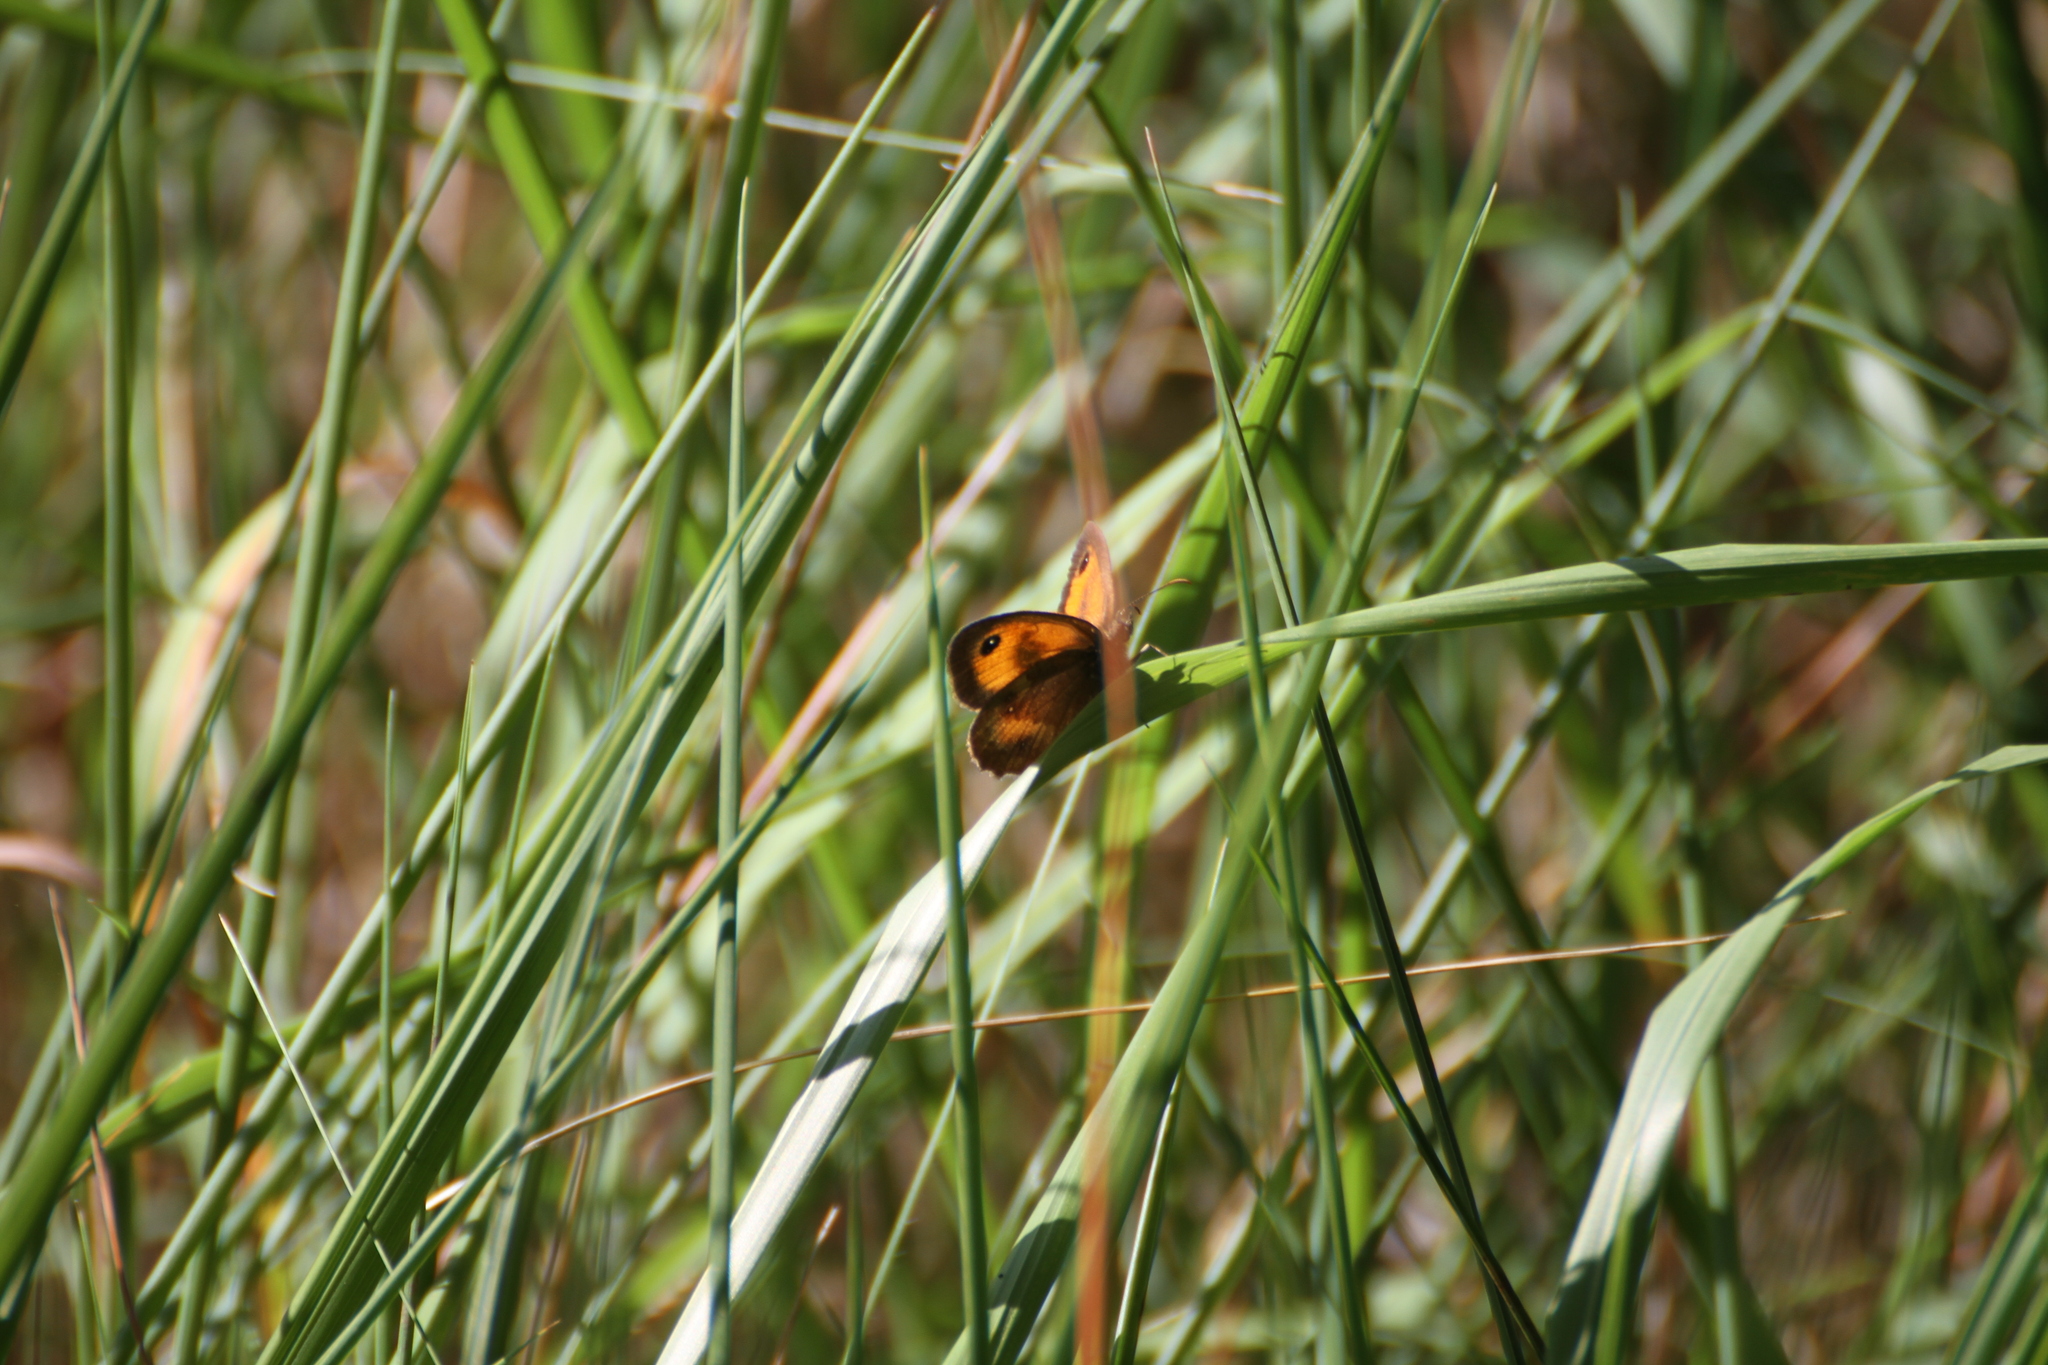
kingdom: Animalia
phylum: Arthropoda
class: Insecta
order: Lepidoptera
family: Nymphalidae
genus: Pyronia
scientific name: Pyronia tithonus
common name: Gatekeeper
